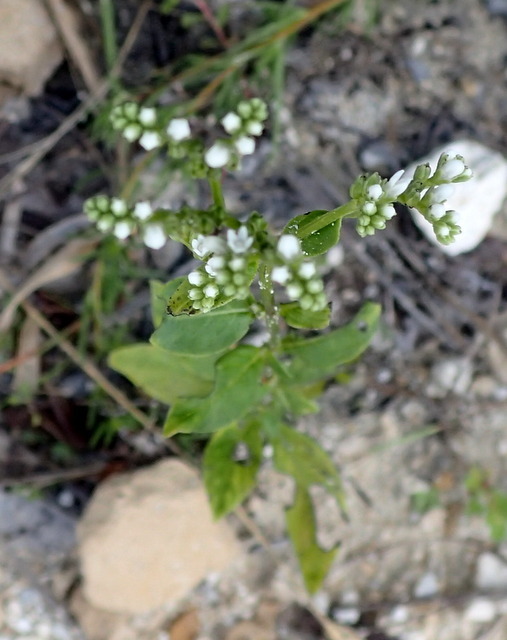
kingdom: Plantae
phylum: Tracheophyta
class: Magnoliopsida
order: Gentianales
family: Loganiaceae
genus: Mitreola
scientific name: Mitreola petiolata
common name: Lax hornpod
